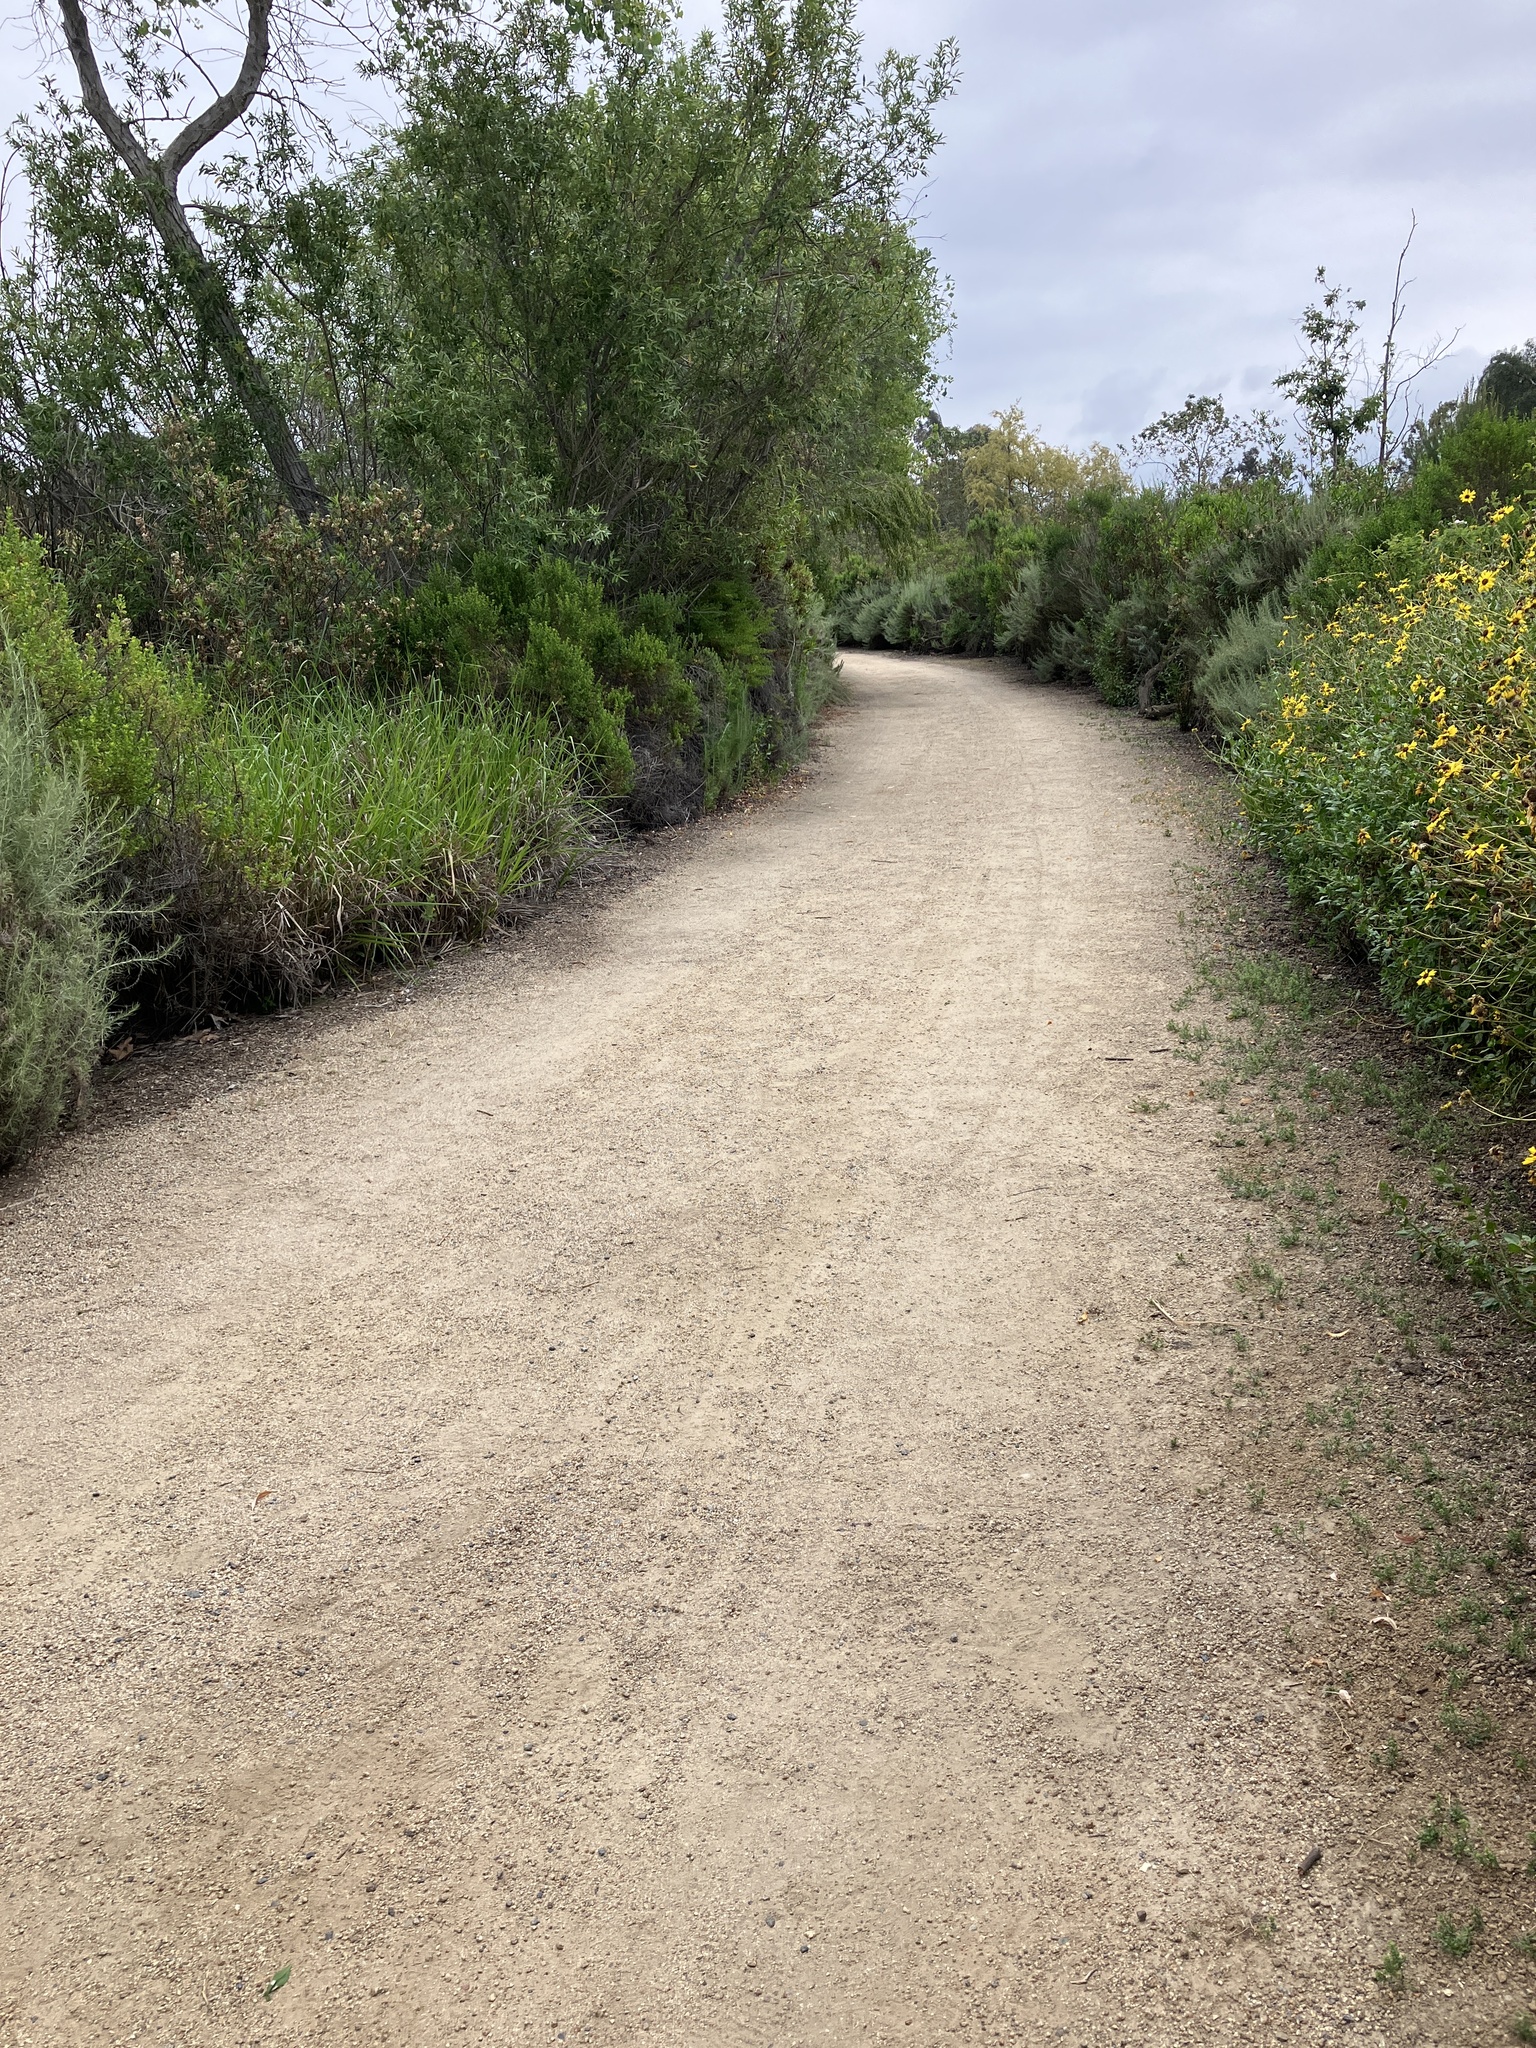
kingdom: Animalia
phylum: Chordata
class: Aves
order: Passeriformes
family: Hirundinidae
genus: Tachycineta
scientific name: Tachycineta bicolor
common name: Tree swallow
